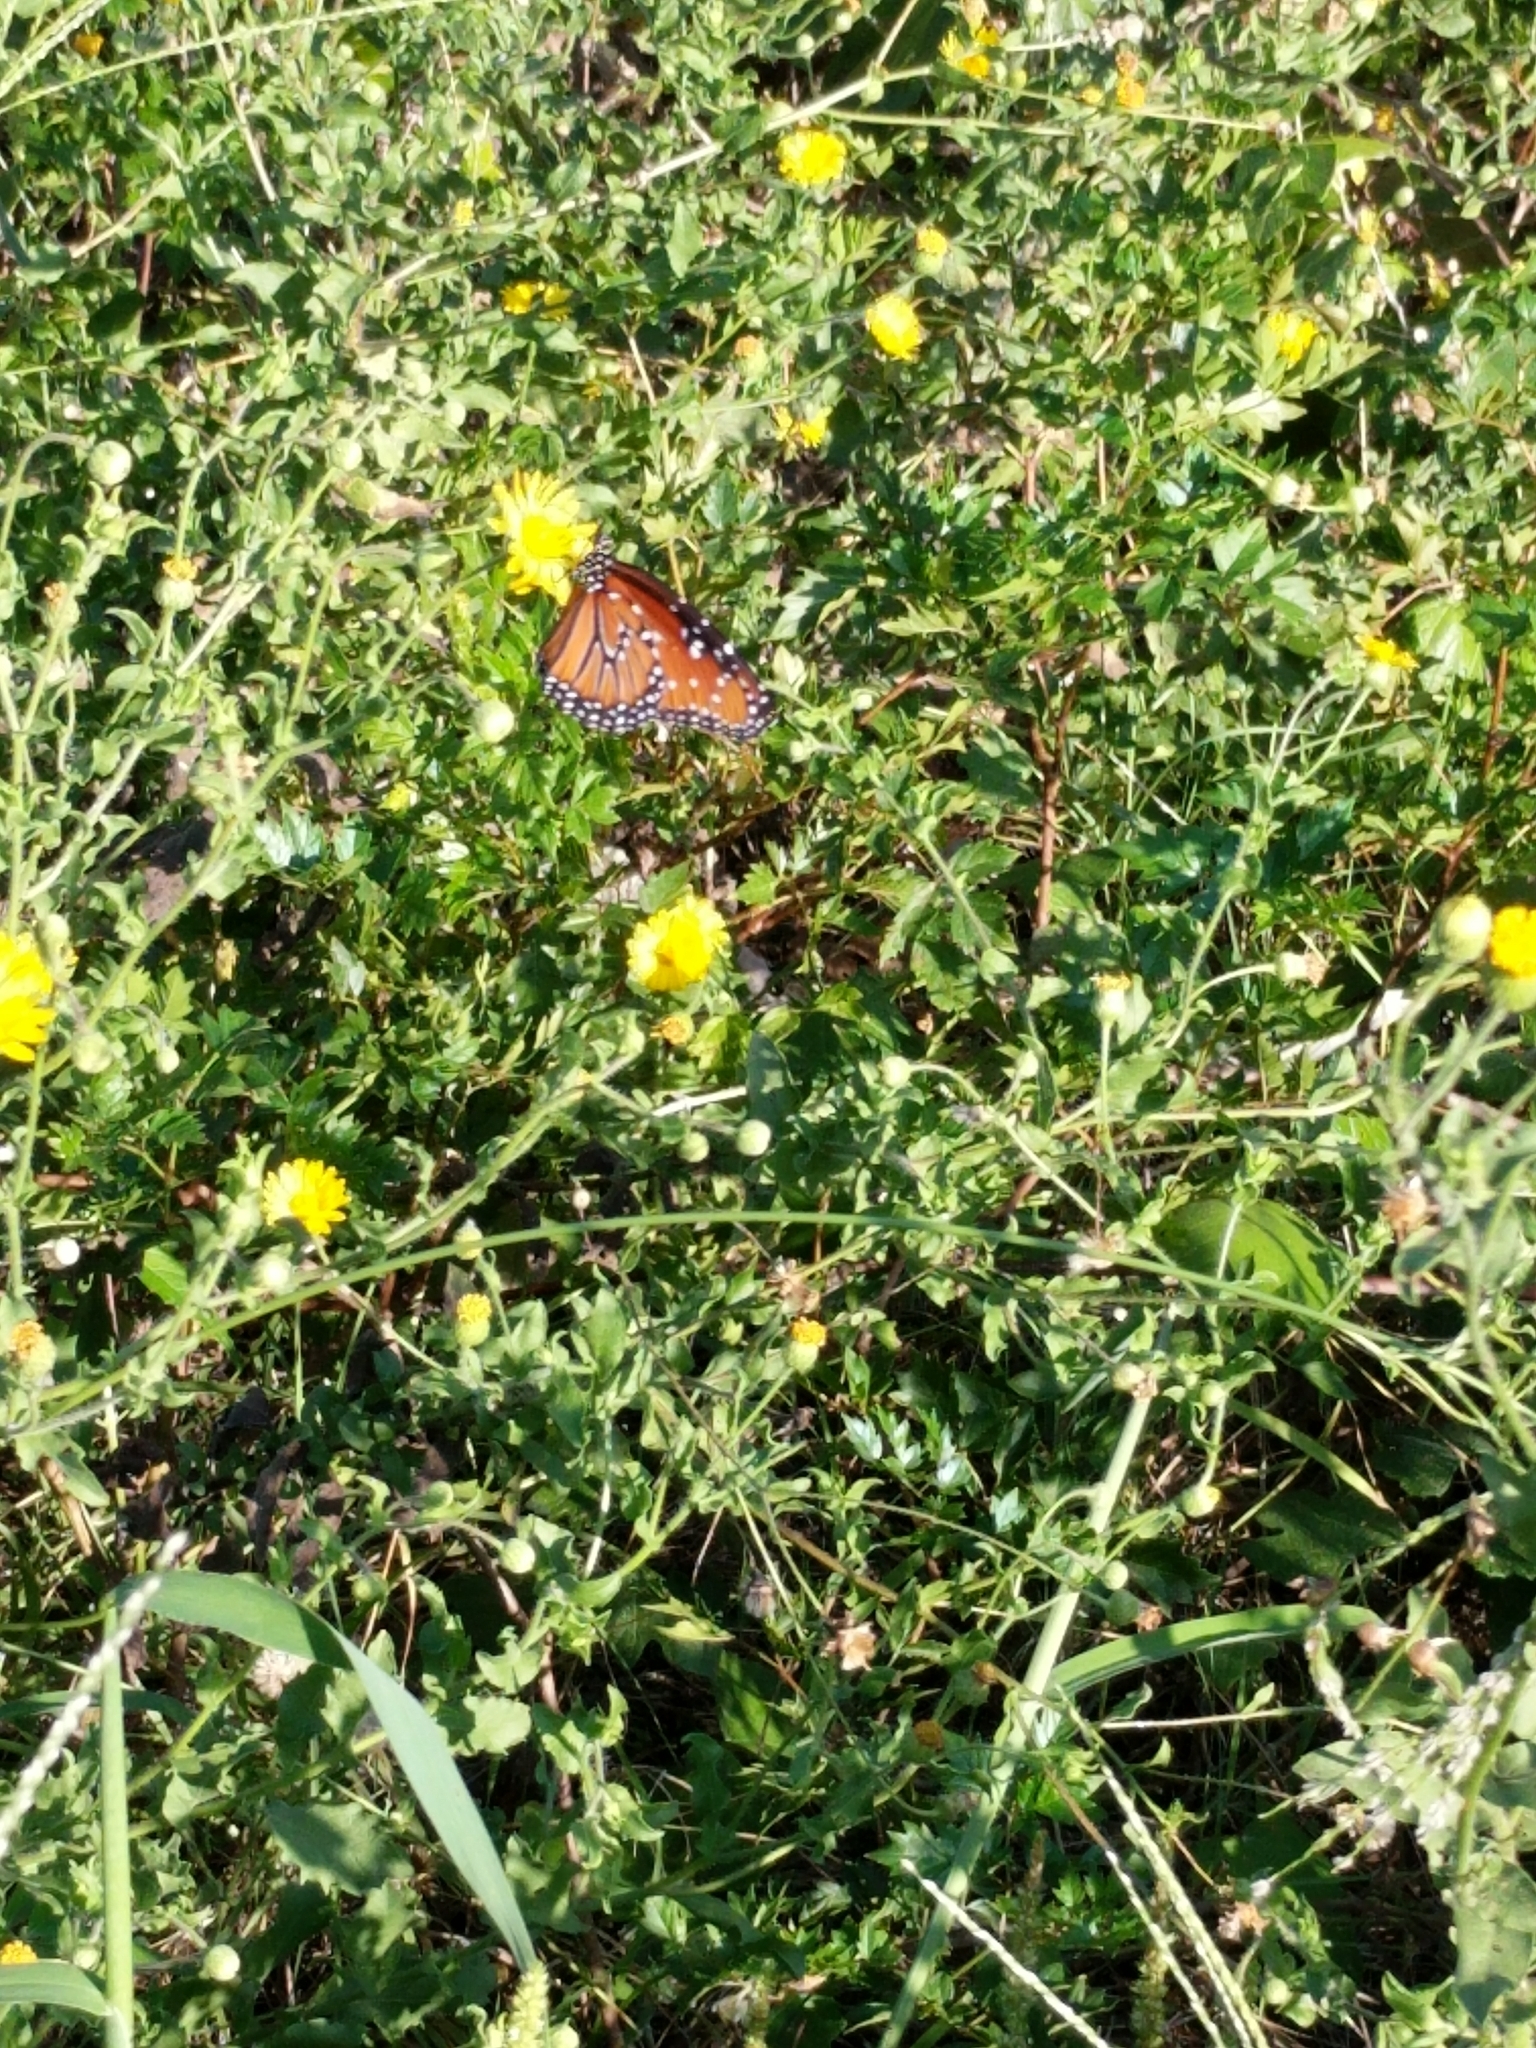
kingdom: Animalia
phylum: Arthropoda
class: Insecta
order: Lepidoptera
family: Nymphalidae
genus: Danaus
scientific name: Danaus gilippus
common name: Queen
